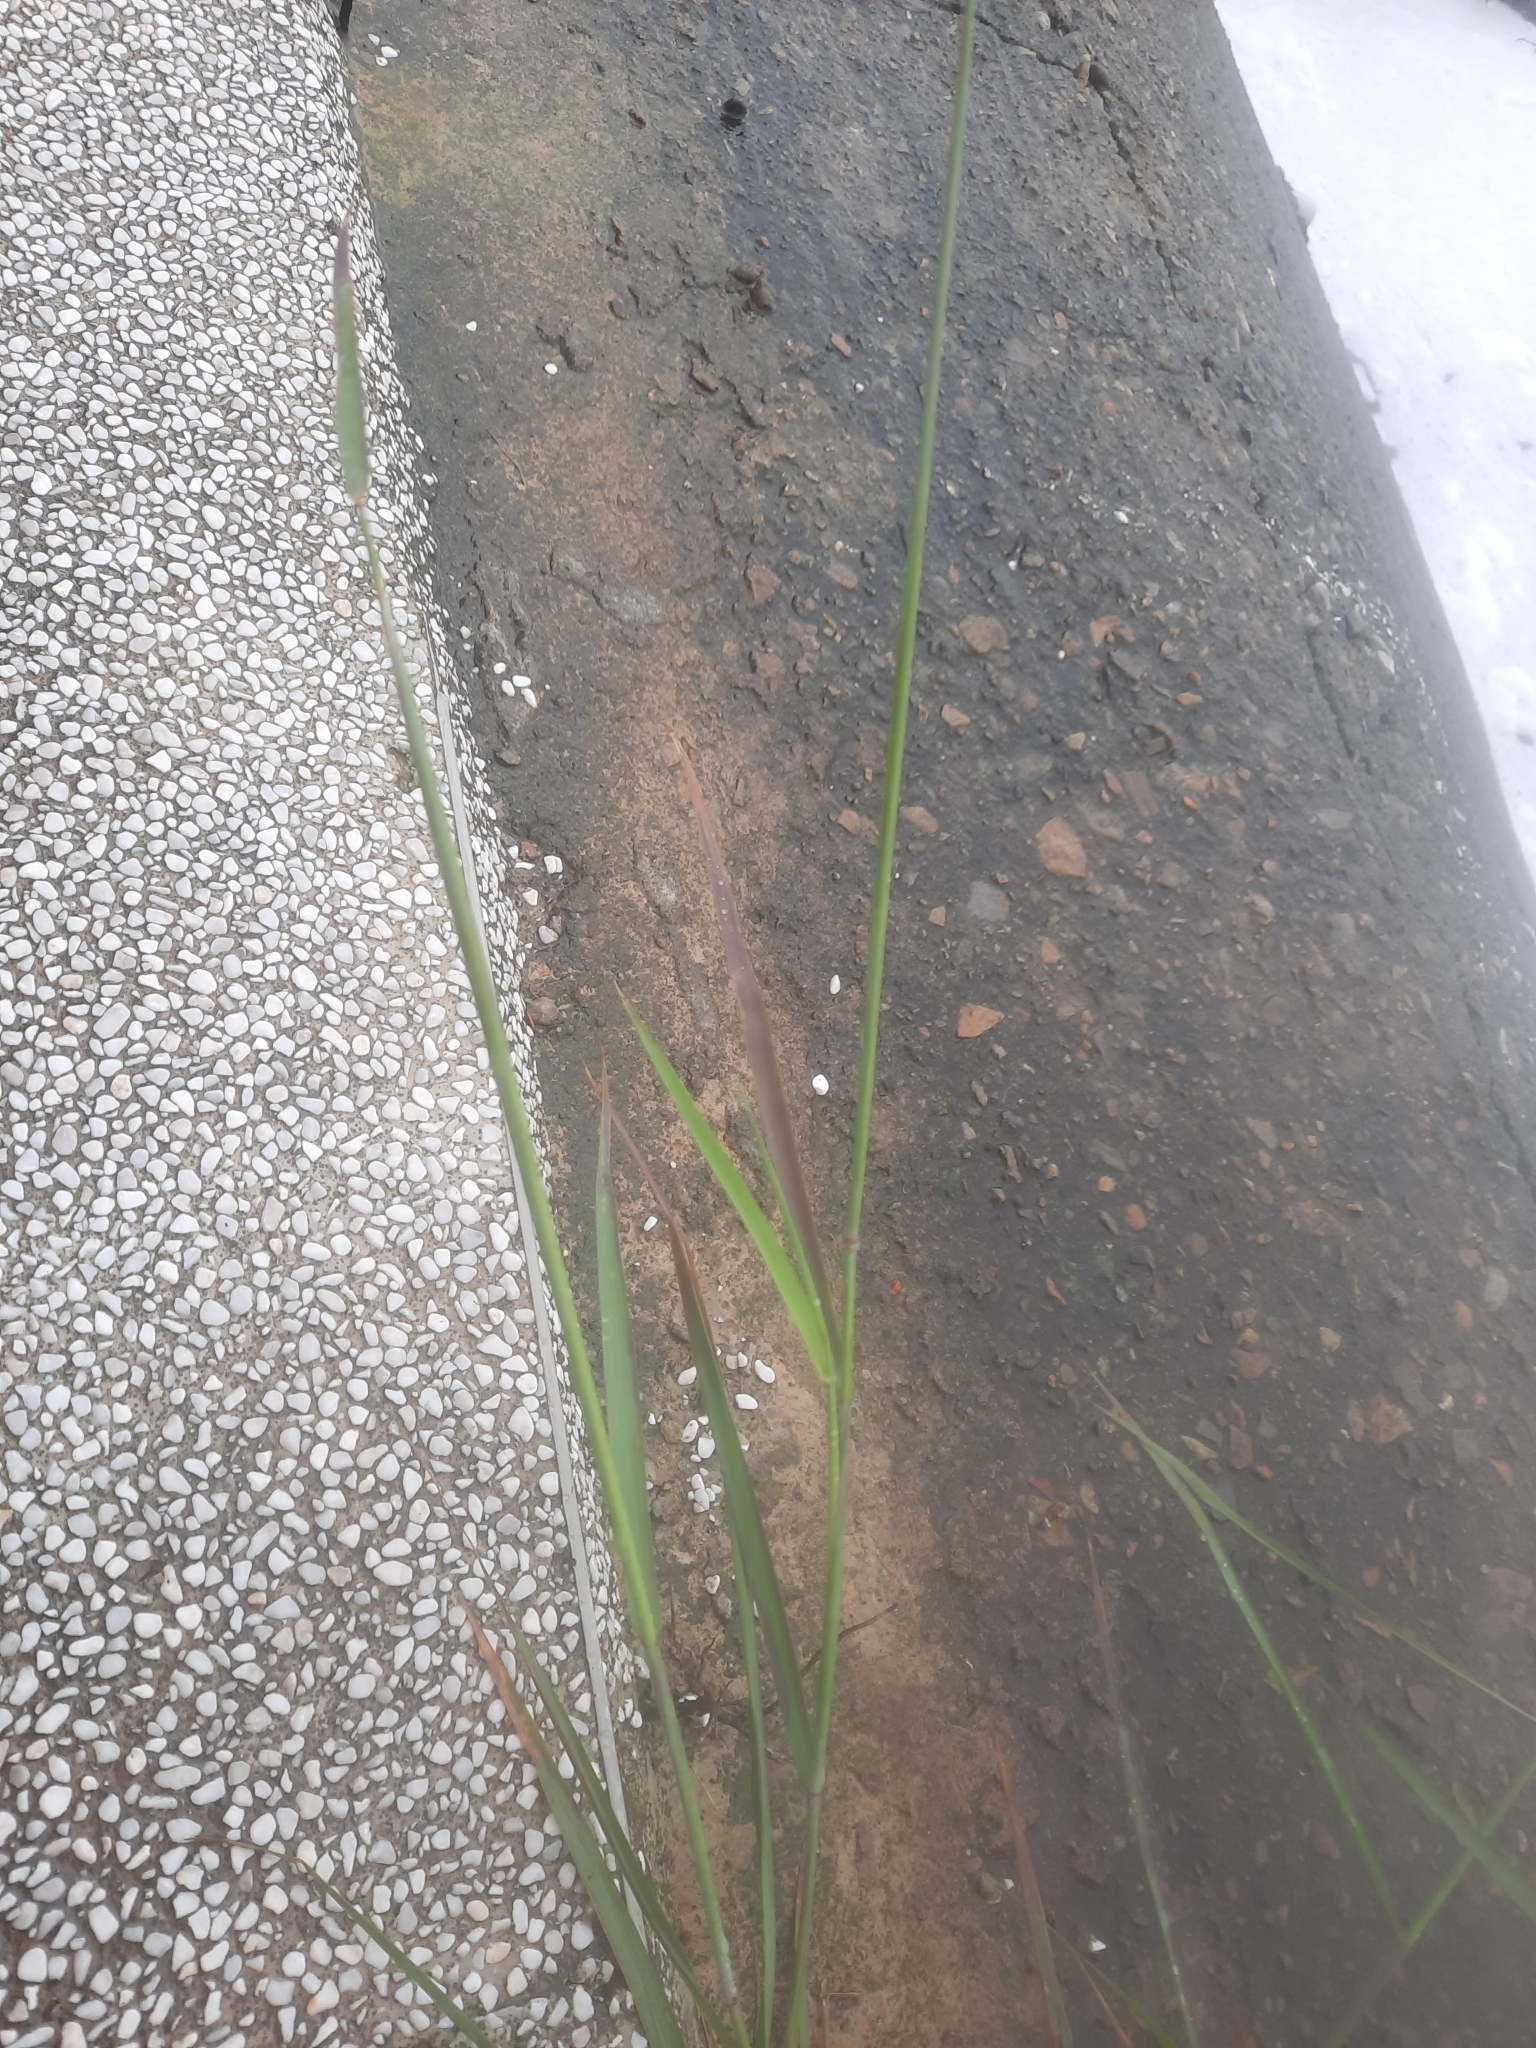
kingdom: Plantae
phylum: Tracheophyta
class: Liliopsida
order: Poales
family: Poaceae
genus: Melinis
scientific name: Melinis repens
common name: Rose natal grass
